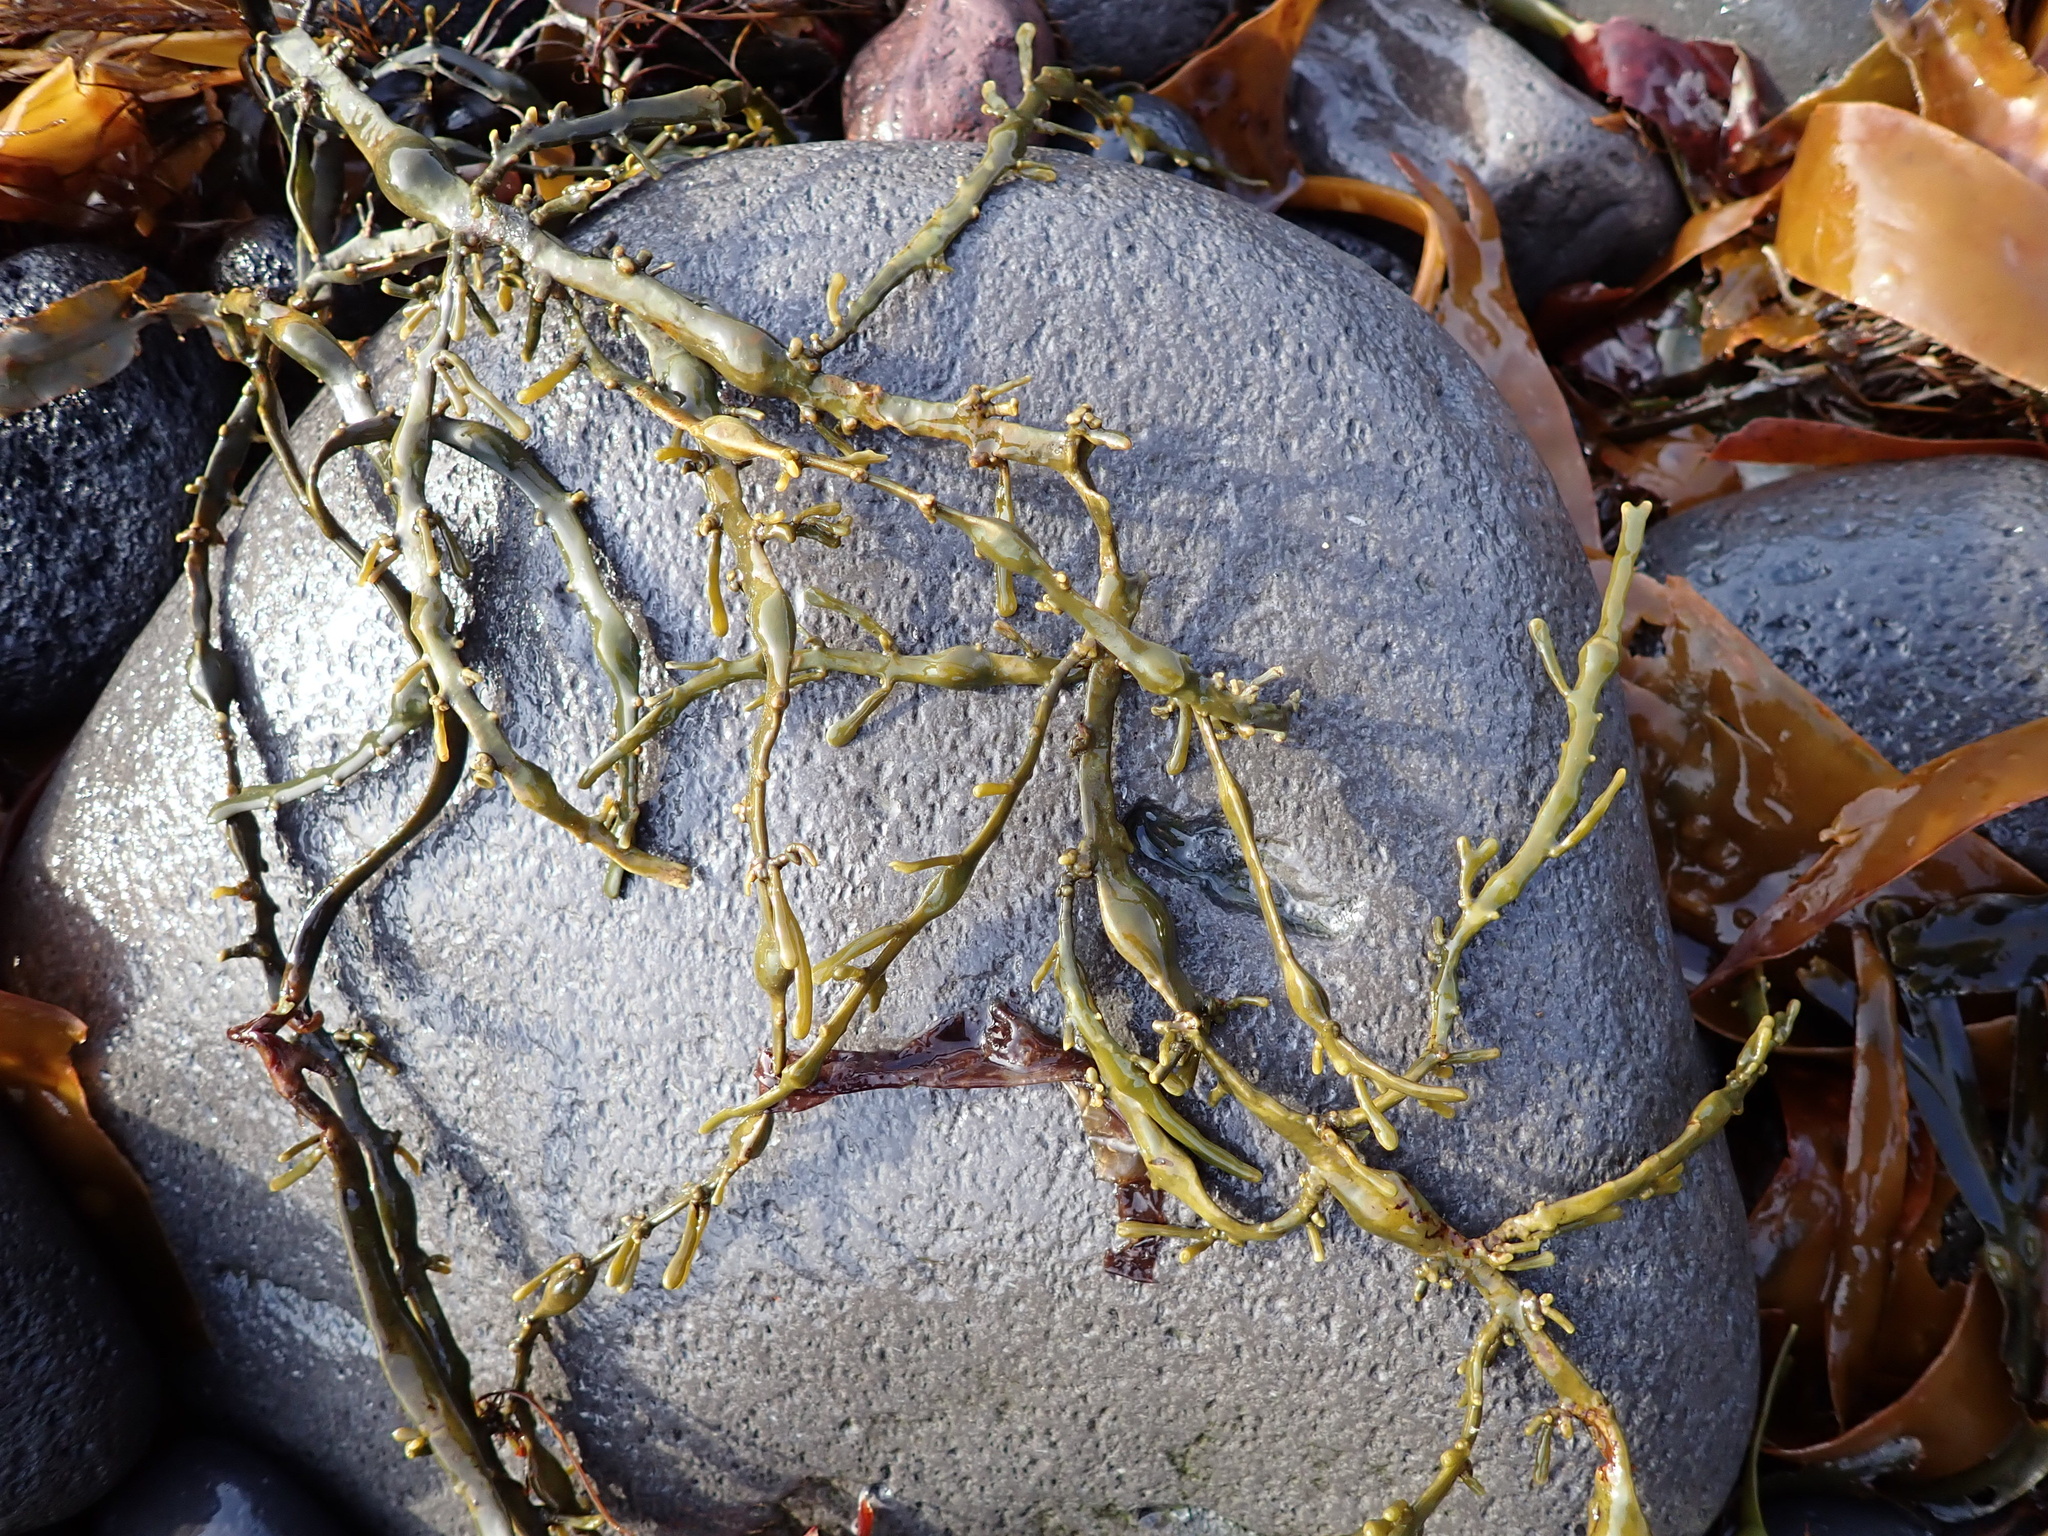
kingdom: Chromista
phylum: Ochrophyta
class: Phaeophyceae
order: Fucales
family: Fucaceae
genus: Ascophyllum
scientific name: Ascophyllum nodosum
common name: Knotted wrack
